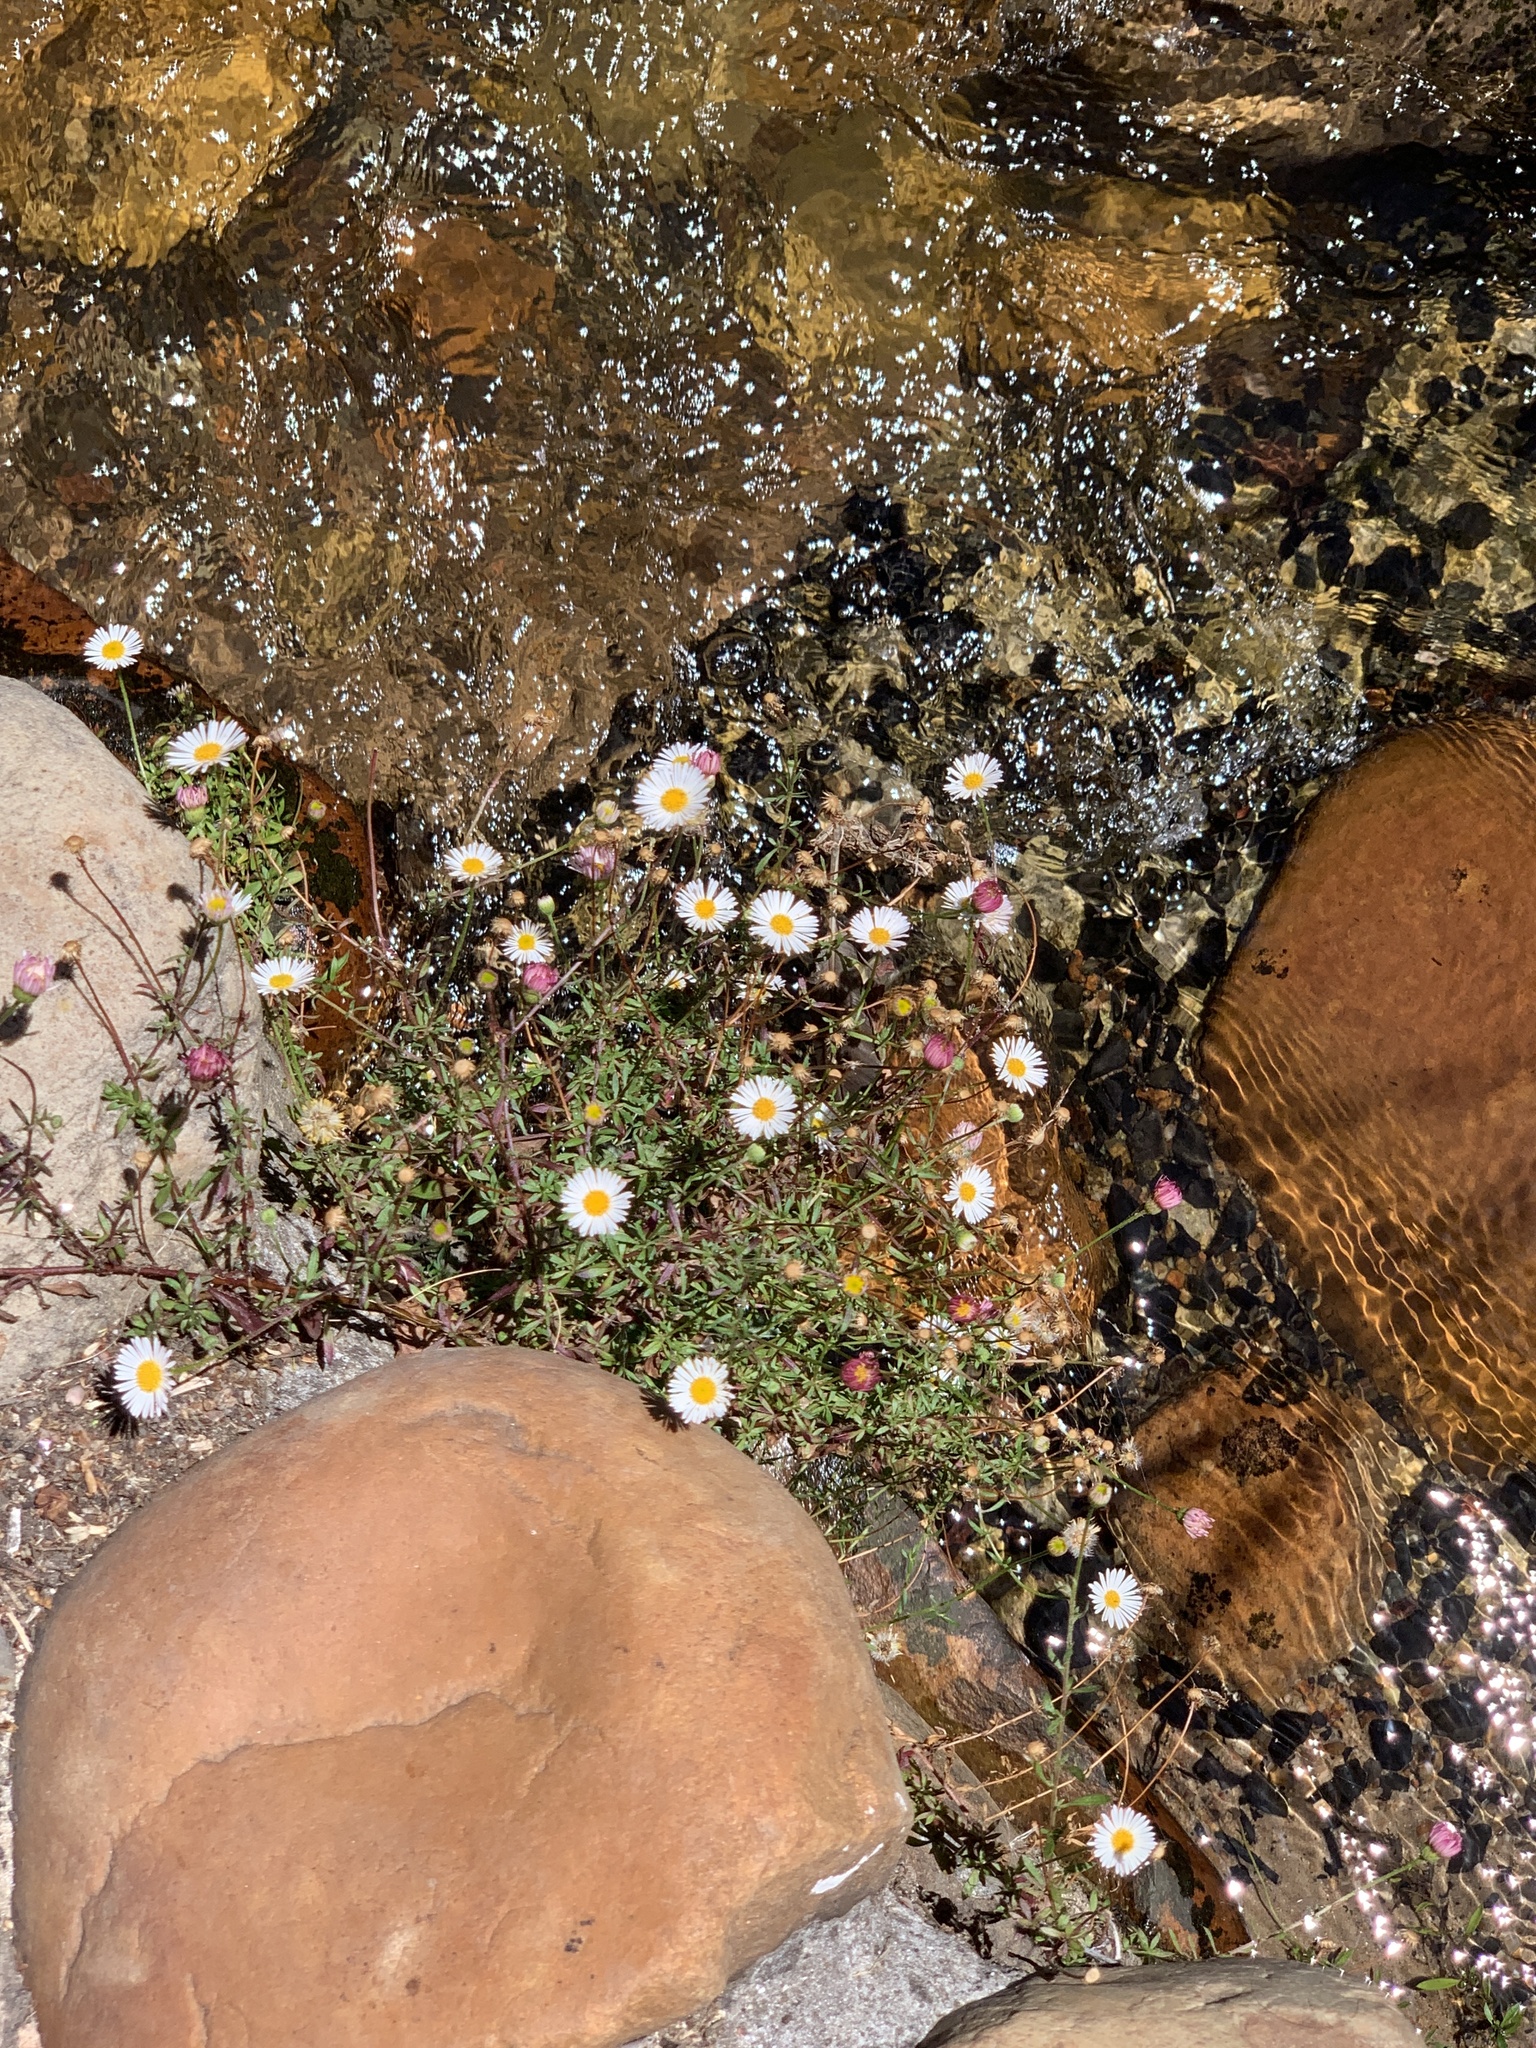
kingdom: Plantae
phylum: Tracheophyta
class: Magnoliopsida
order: Asterales
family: Asteraceae
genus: Erigeron
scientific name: Erigeron karvinskianus
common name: Mexican fleabane
